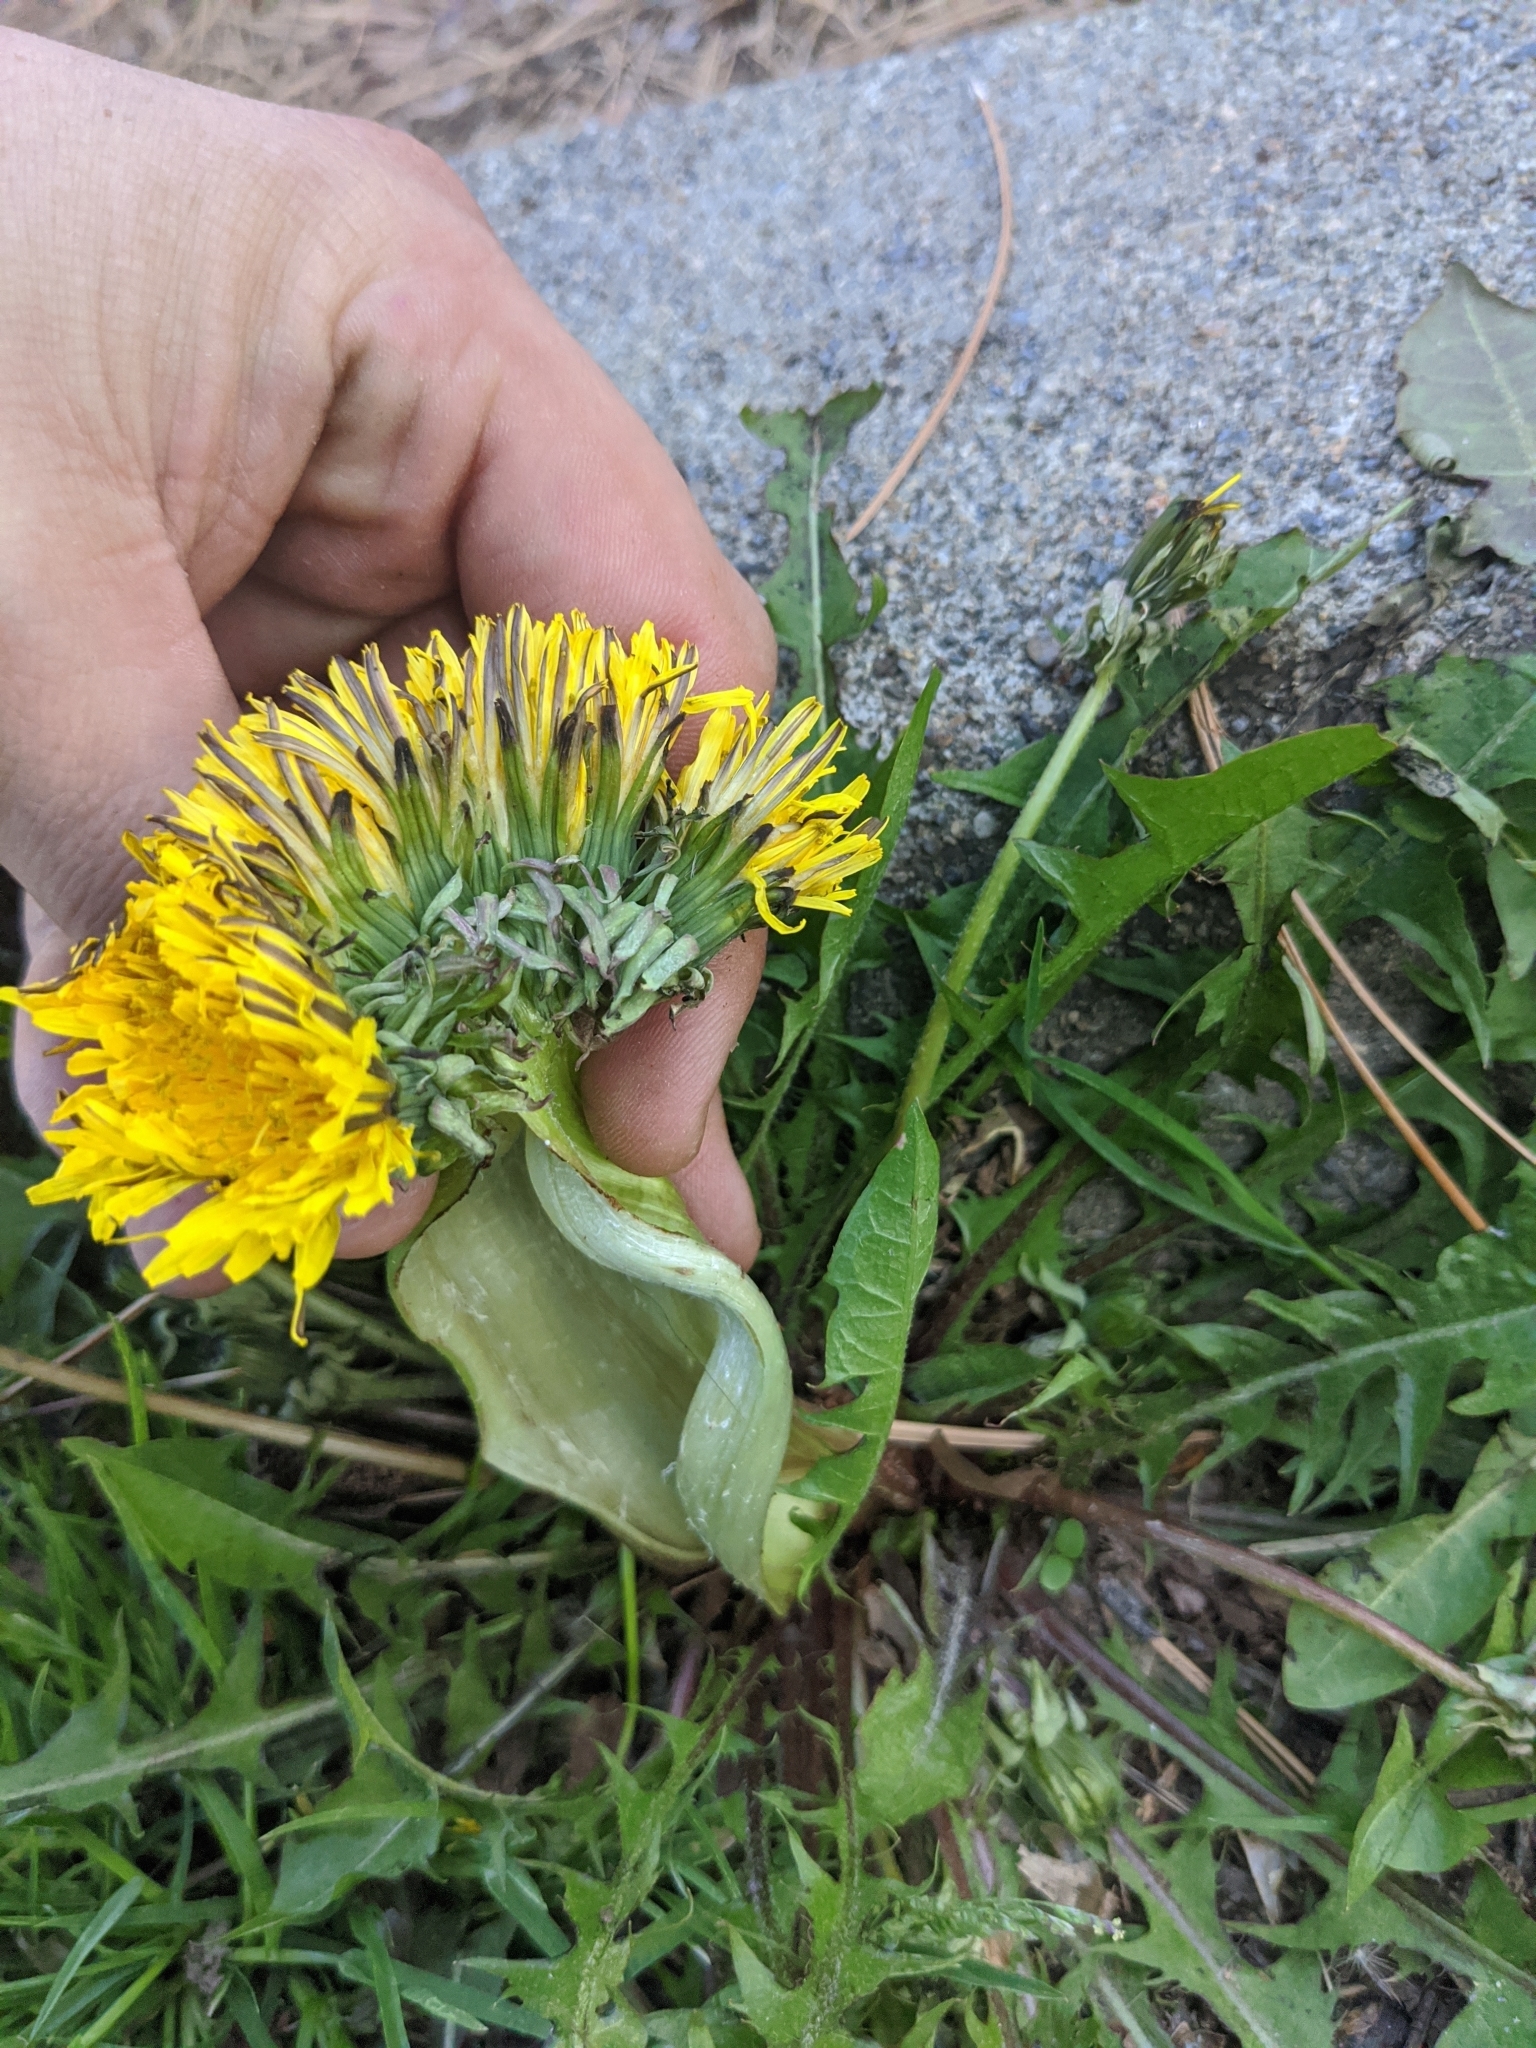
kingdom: Plantae
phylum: Tracheophyta
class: Magnoliopsida
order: Asterales
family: Asteraceae
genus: Taraxacum
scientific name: Taraxacum officinale
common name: Common dandelion
